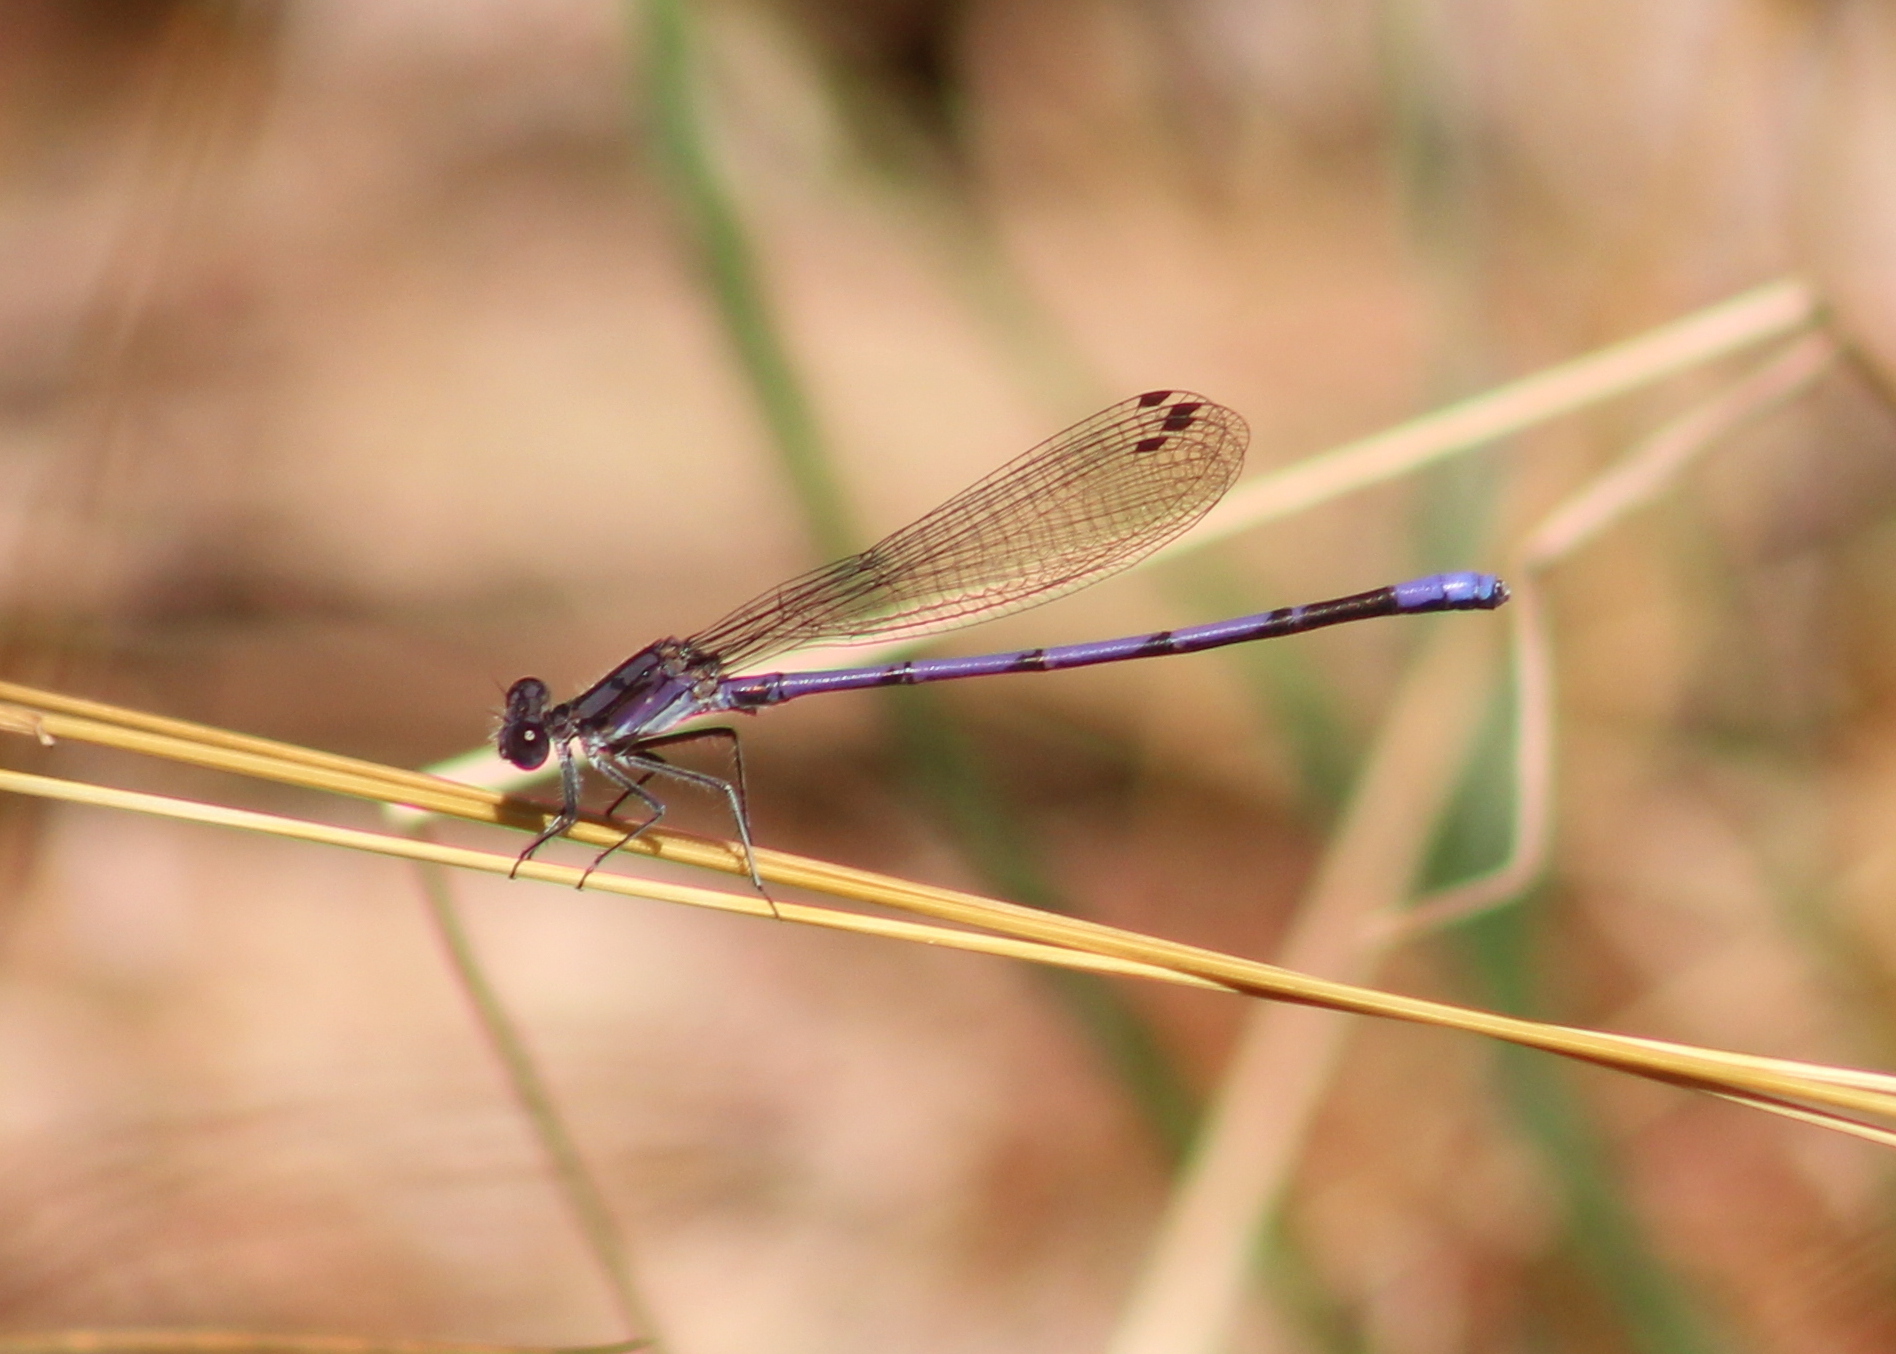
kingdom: Animalia
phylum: Arthropoda
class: Insecta
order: Odonata
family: Coenagrionidae
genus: Argia
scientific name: Argia fumipennis
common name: Variable dancer
